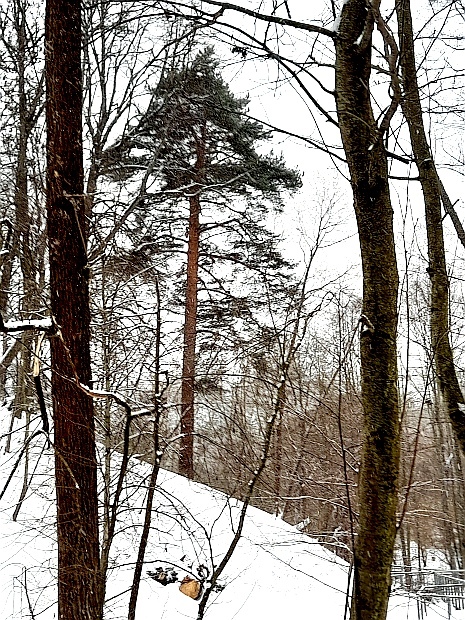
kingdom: Plantae
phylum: Tracheophyta
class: Pinopsida
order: Pinales
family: Pinaceae
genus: Pinus
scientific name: Pinus sylvestris
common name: Scots pine
